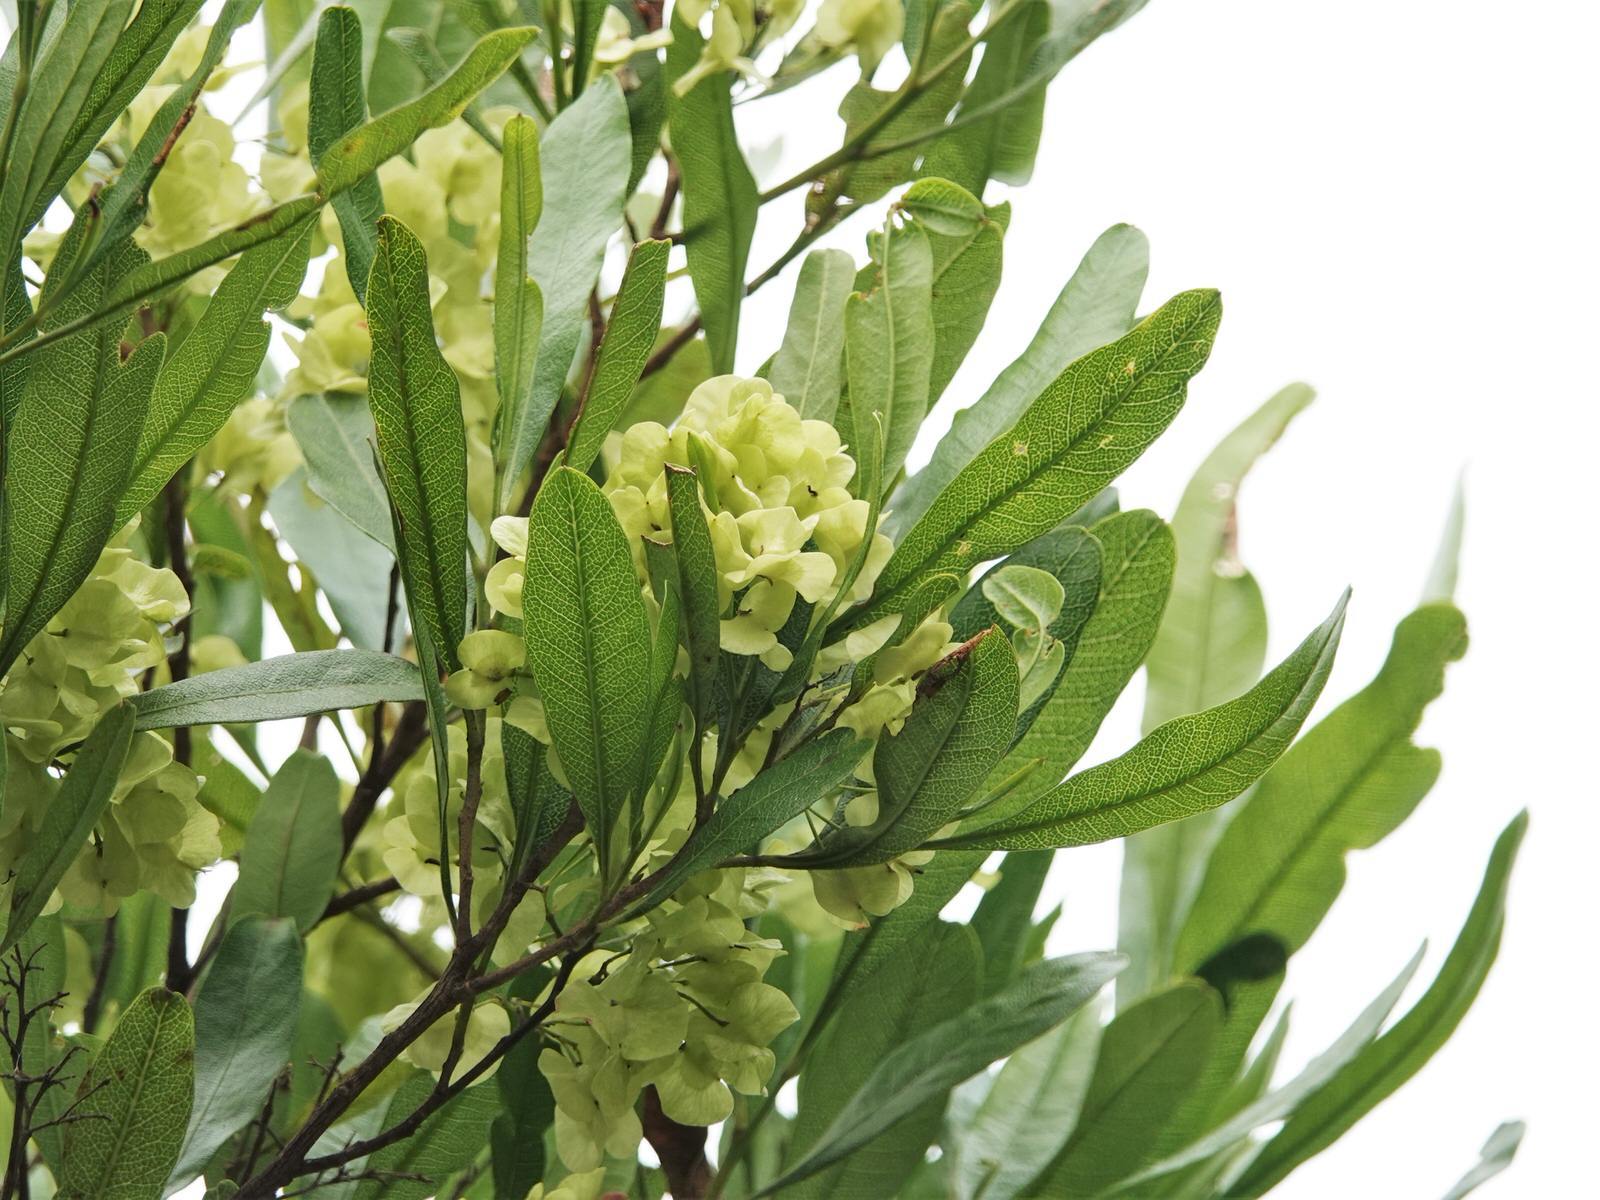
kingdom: Plantae
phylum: Tracheophyta
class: Magnoliopsida
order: Sapindales
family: Sapindaceae
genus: Dodonaea
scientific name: Dodonaea viscosa
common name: Hopbush
